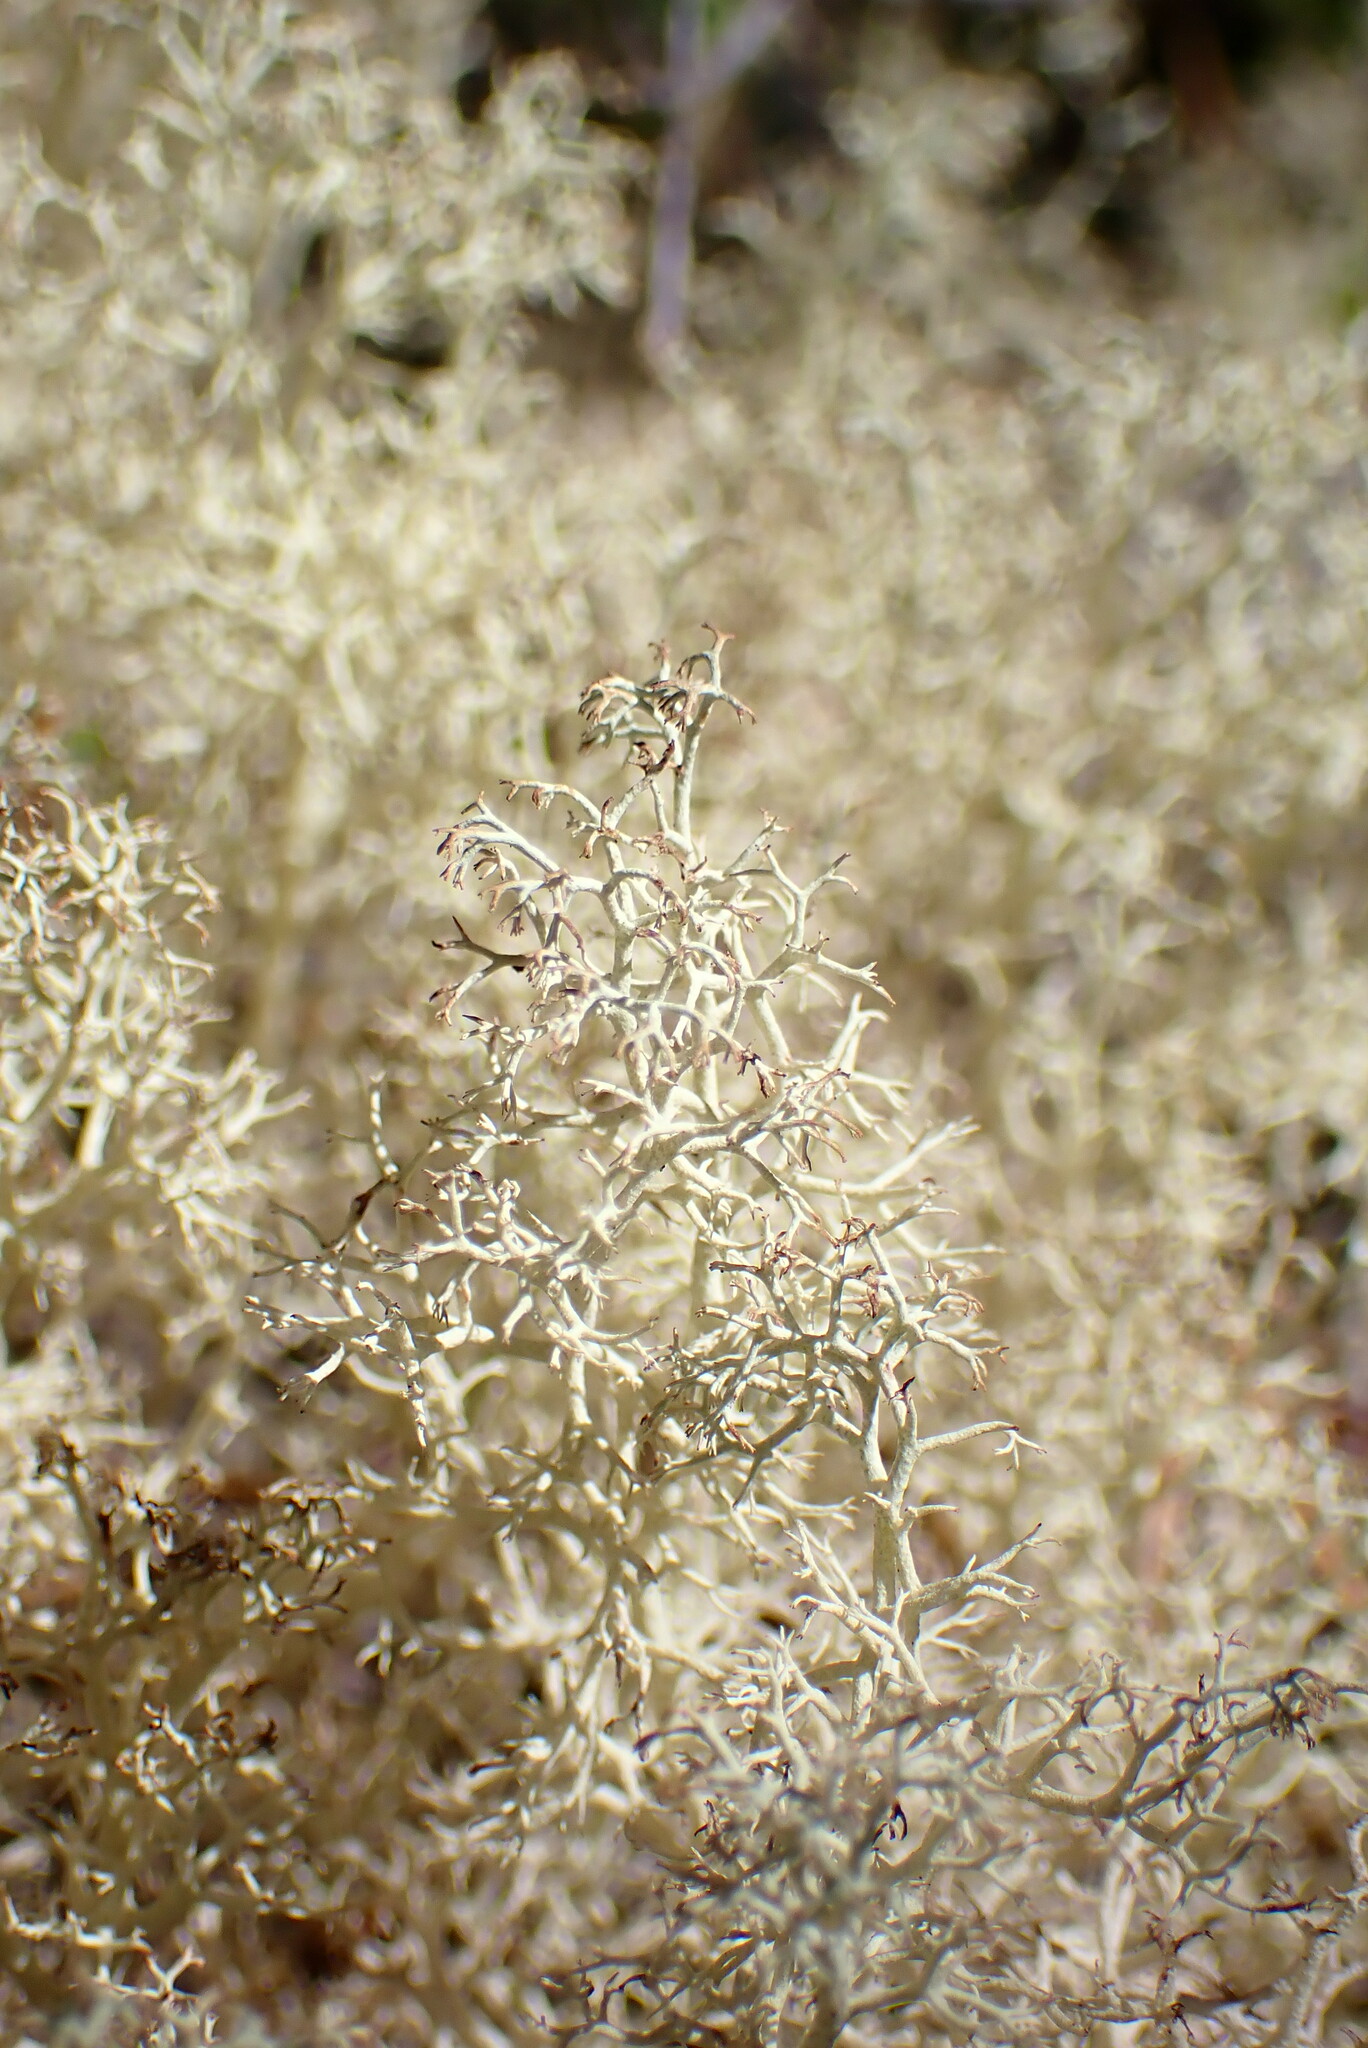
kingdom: Fungi
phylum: Ascomycota
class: Lecanoromycetes
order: Lecanorales
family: Cladoniaceae
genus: Cladonia
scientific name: Cladonia portentosa
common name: Reindeer lichen
